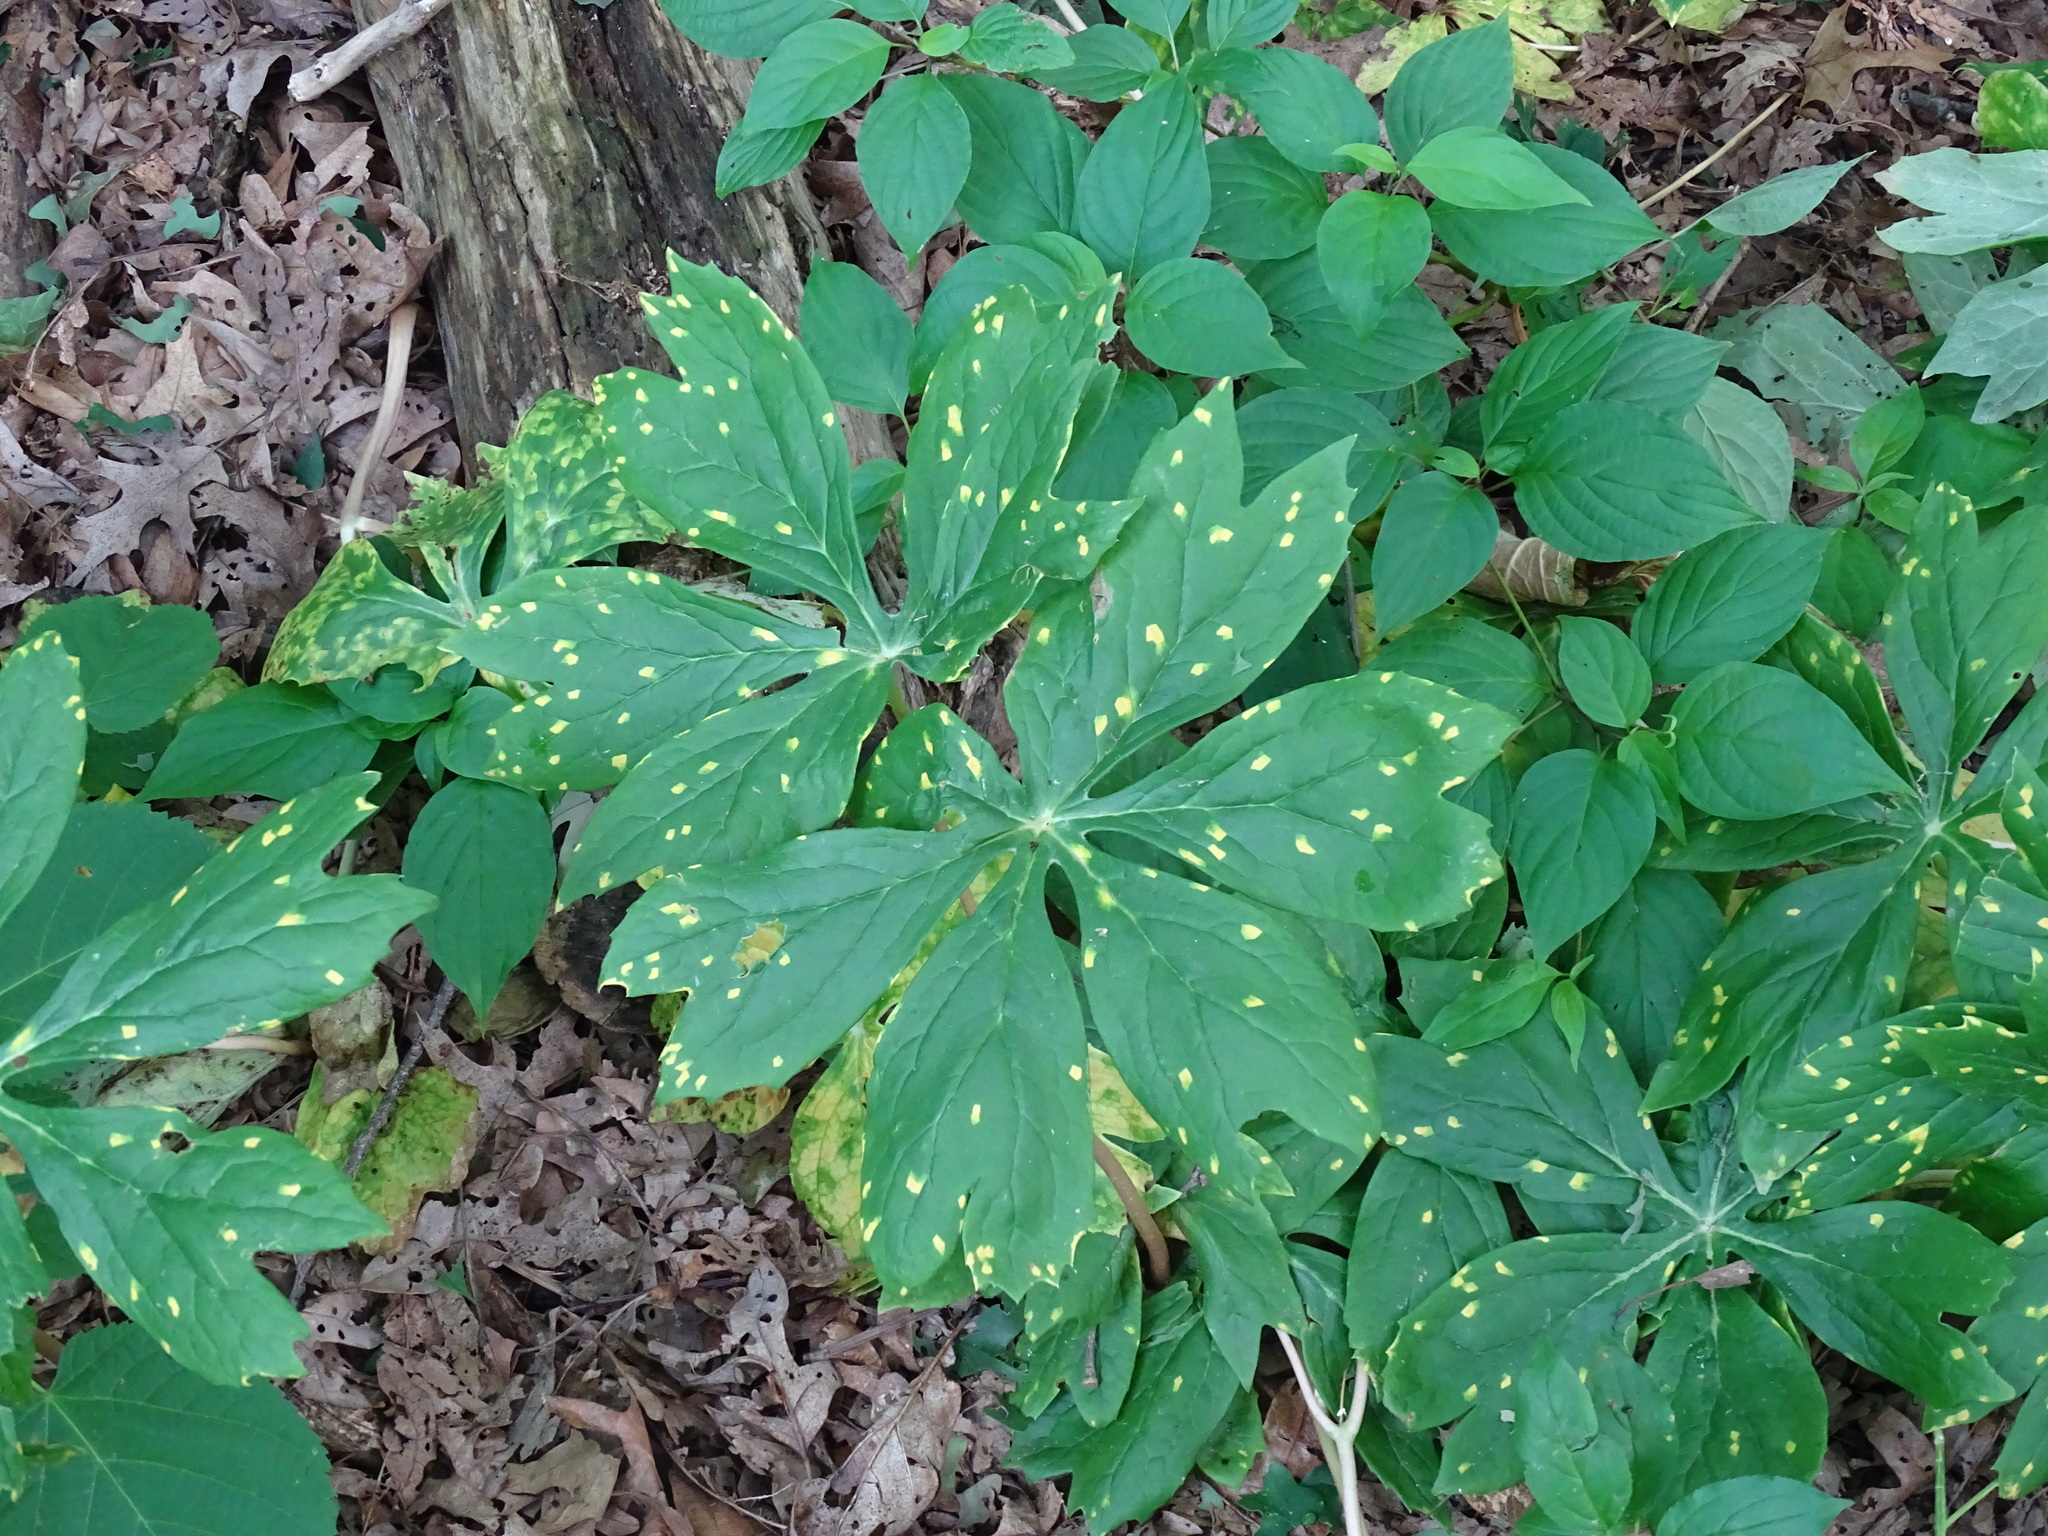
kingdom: Fungi
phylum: Basidiomycota
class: Pucciniomycetes
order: Pucciniales
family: Pucciniaceae
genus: Puccinia
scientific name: Puccinia podophylli
